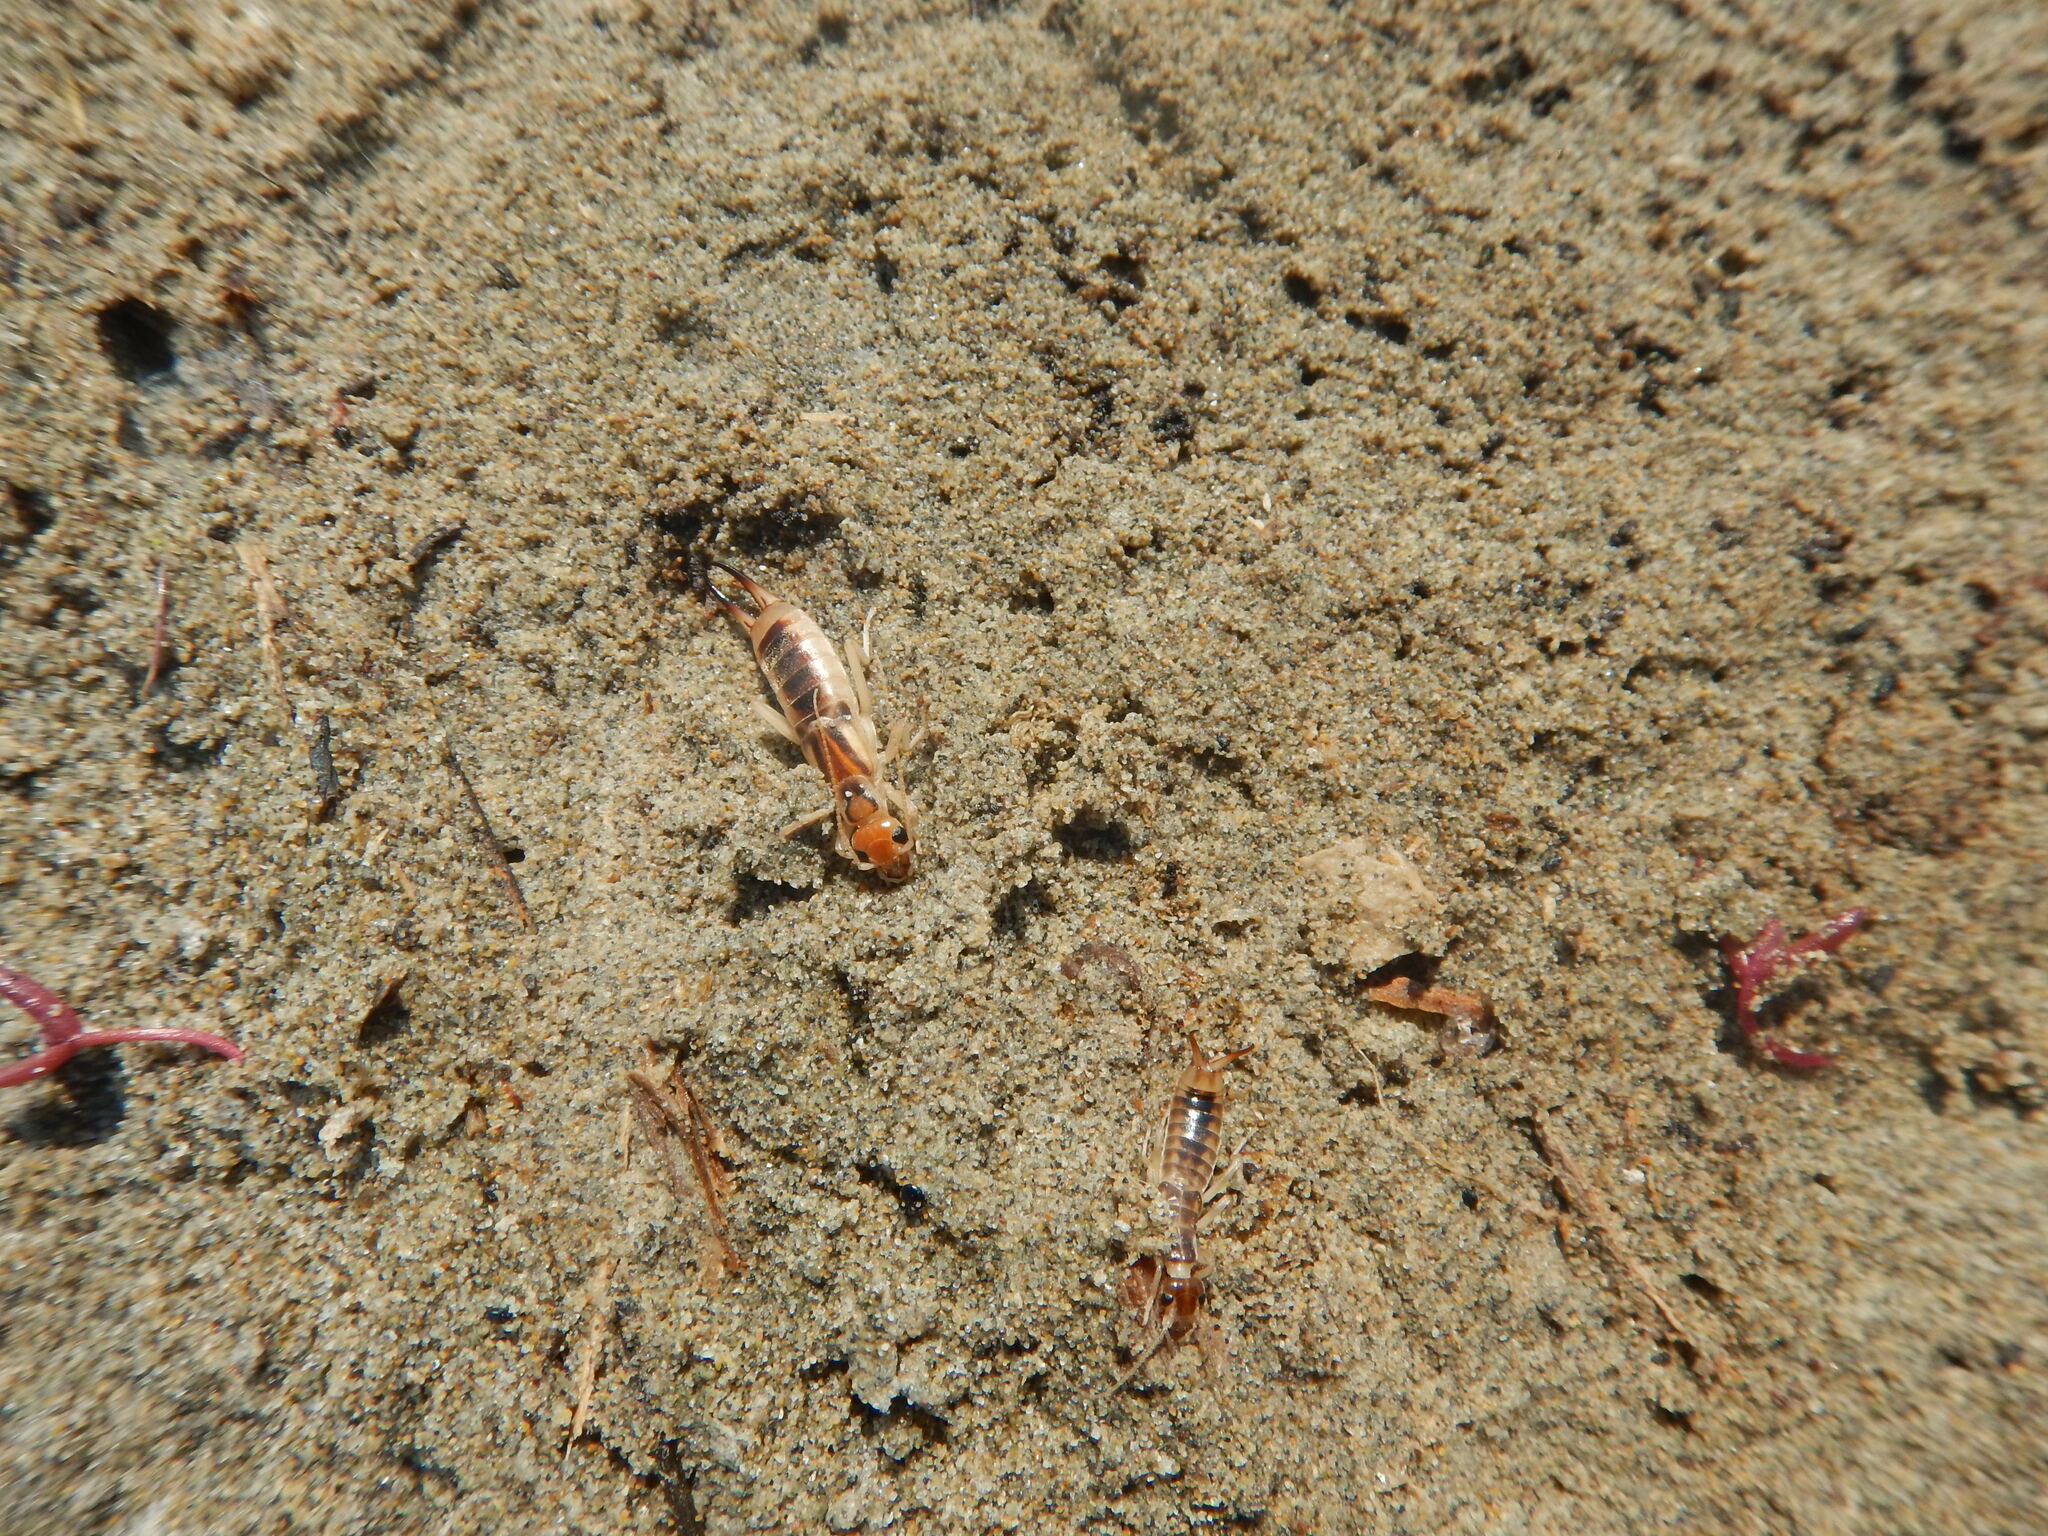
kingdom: Animalia
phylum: Arthropoda
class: Insecta
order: Dermaptera
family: Labiduridae
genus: Labidura
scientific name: Labidura riparia
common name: Striped earwig
